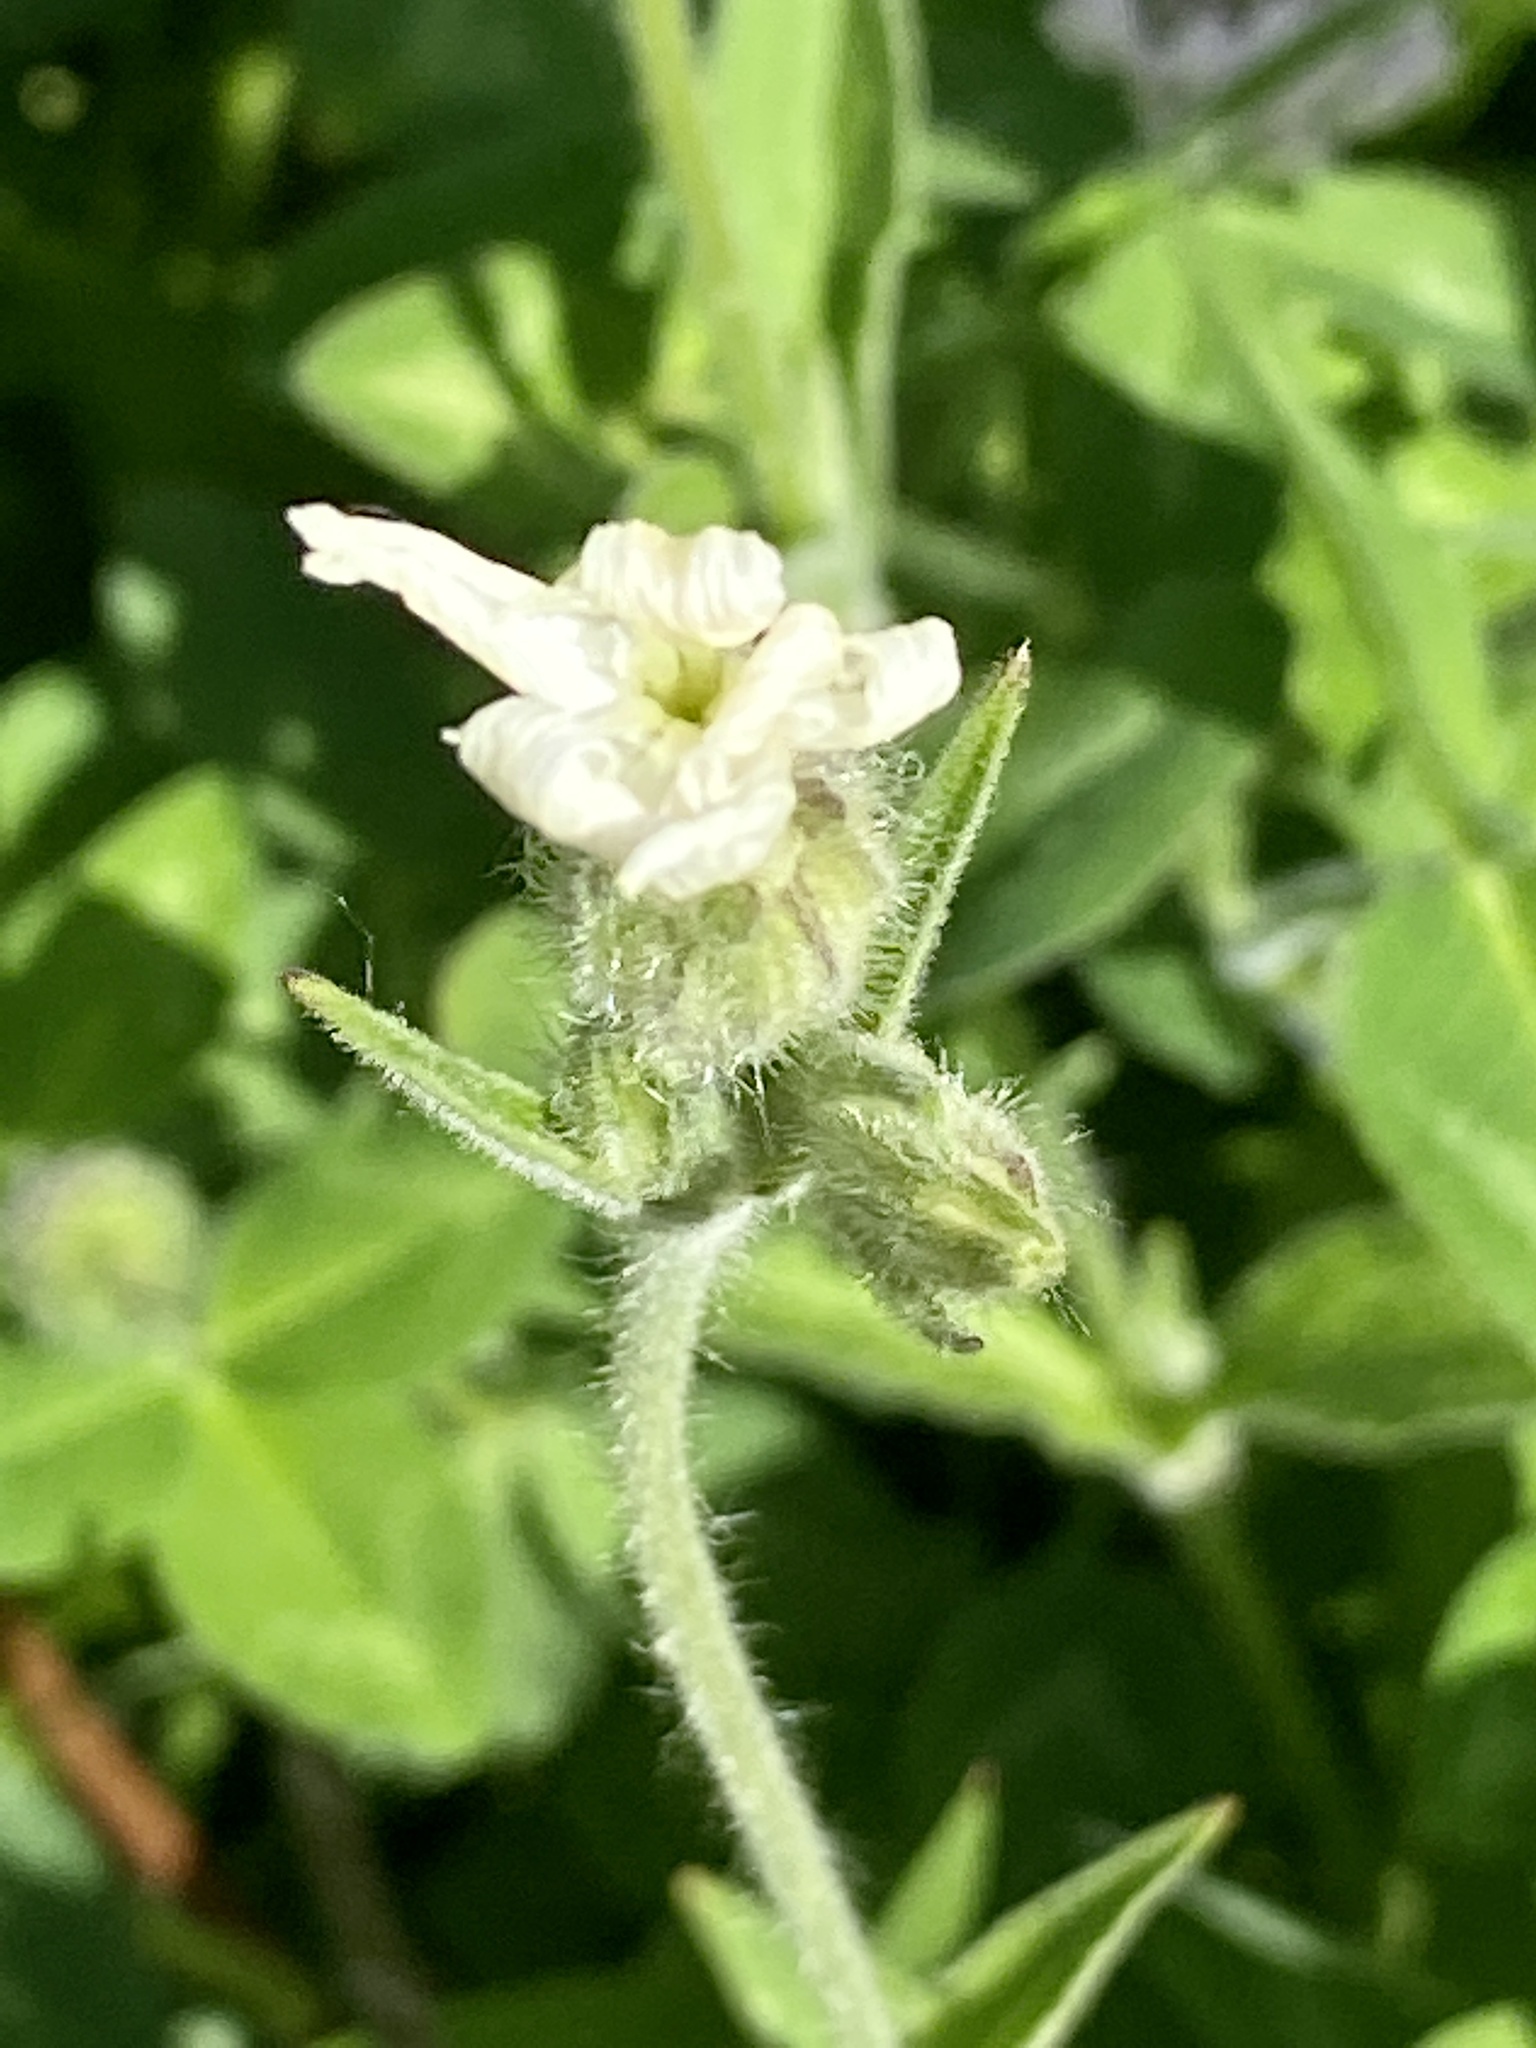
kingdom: Plantae
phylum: Tracheophyta
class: Magnoliopsida
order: Caryophyllales
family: Caryophyllaceae
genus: Silene
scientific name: Silene latifolia
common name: White campion
